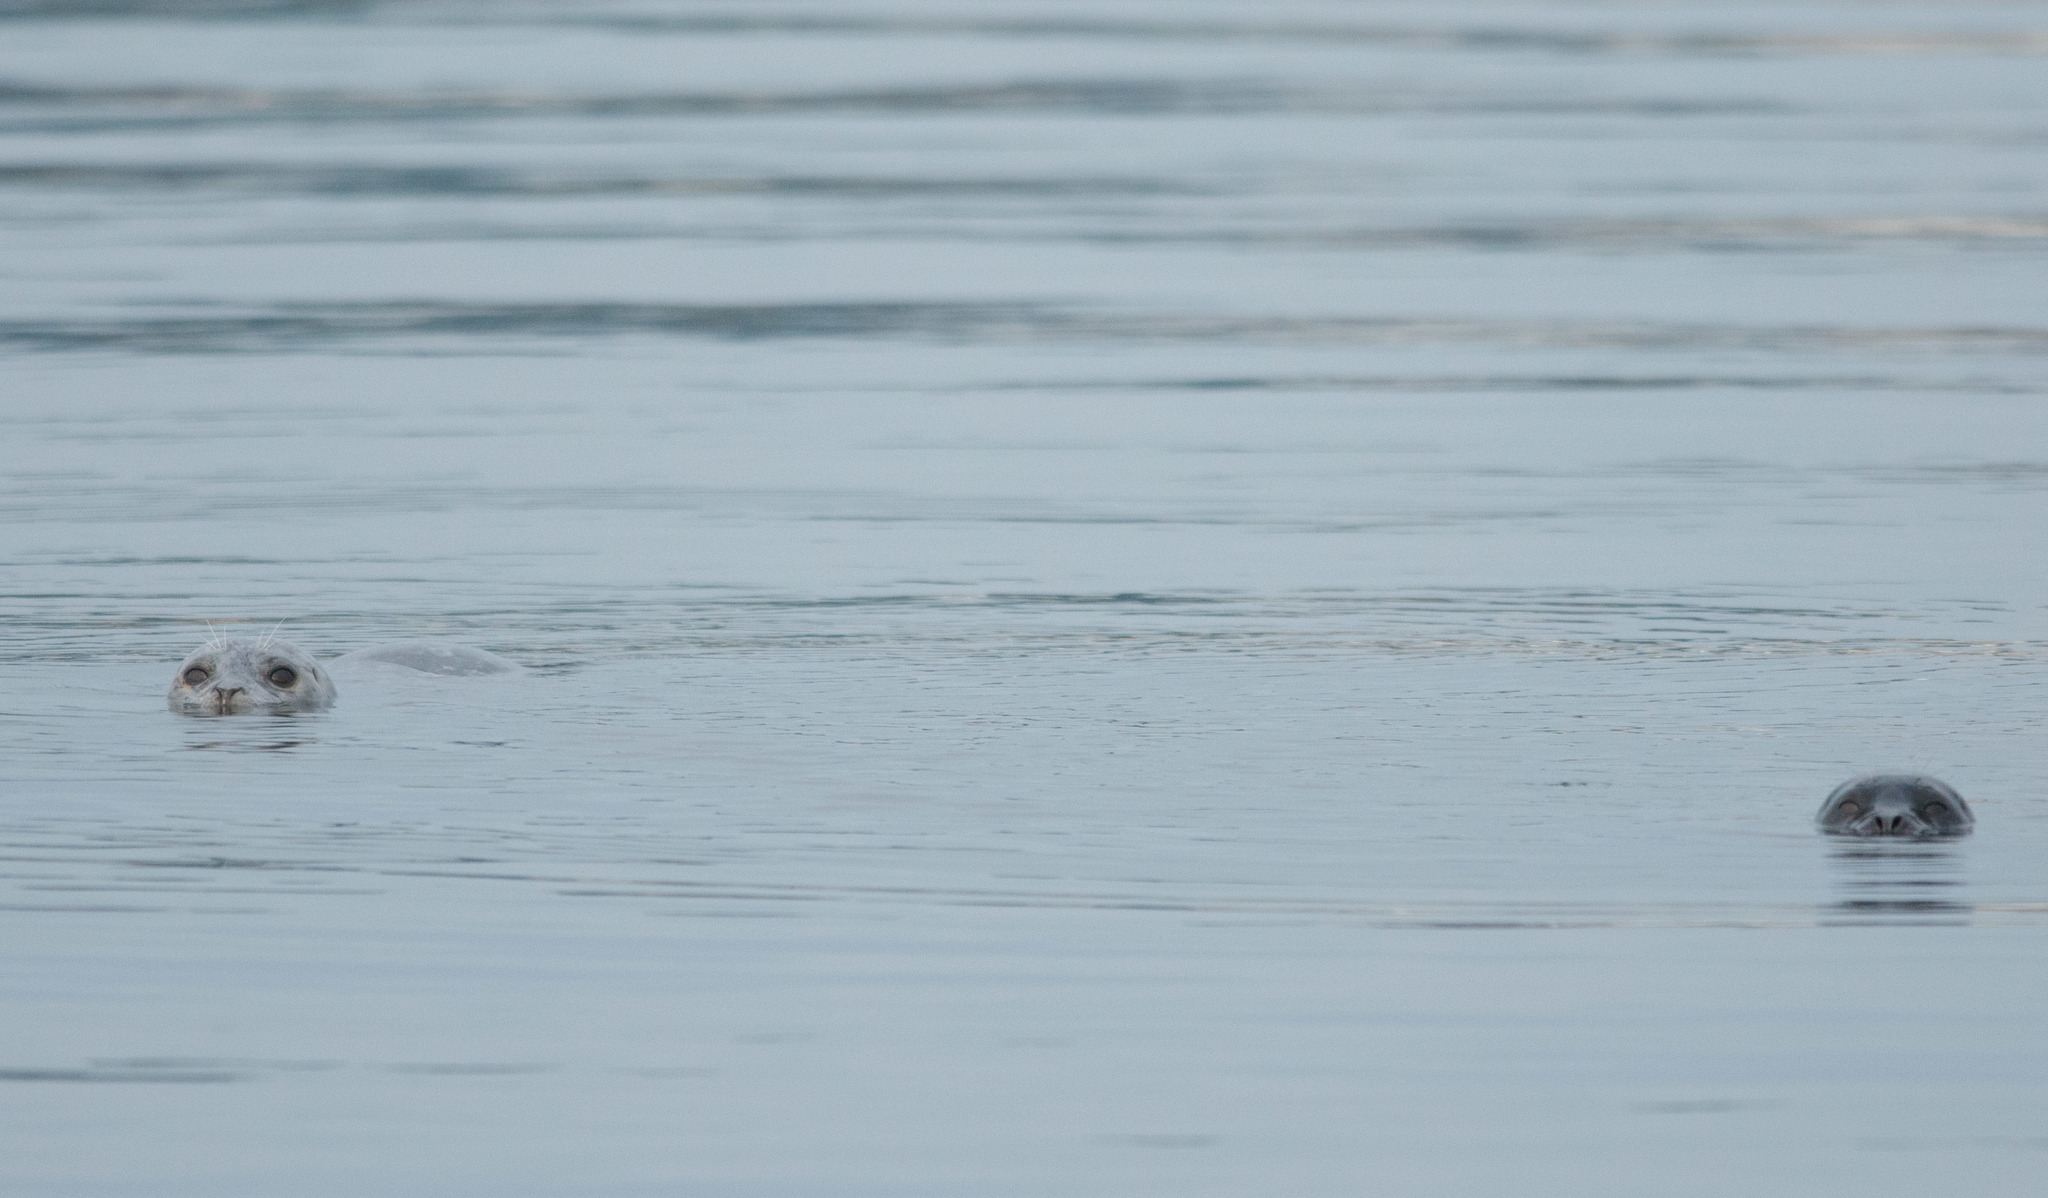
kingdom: Animalia
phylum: Chordata
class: Mammalia
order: Carnivora
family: Phocidae
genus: Phoca
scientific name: Phoca vitulina
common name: Harbor seal
